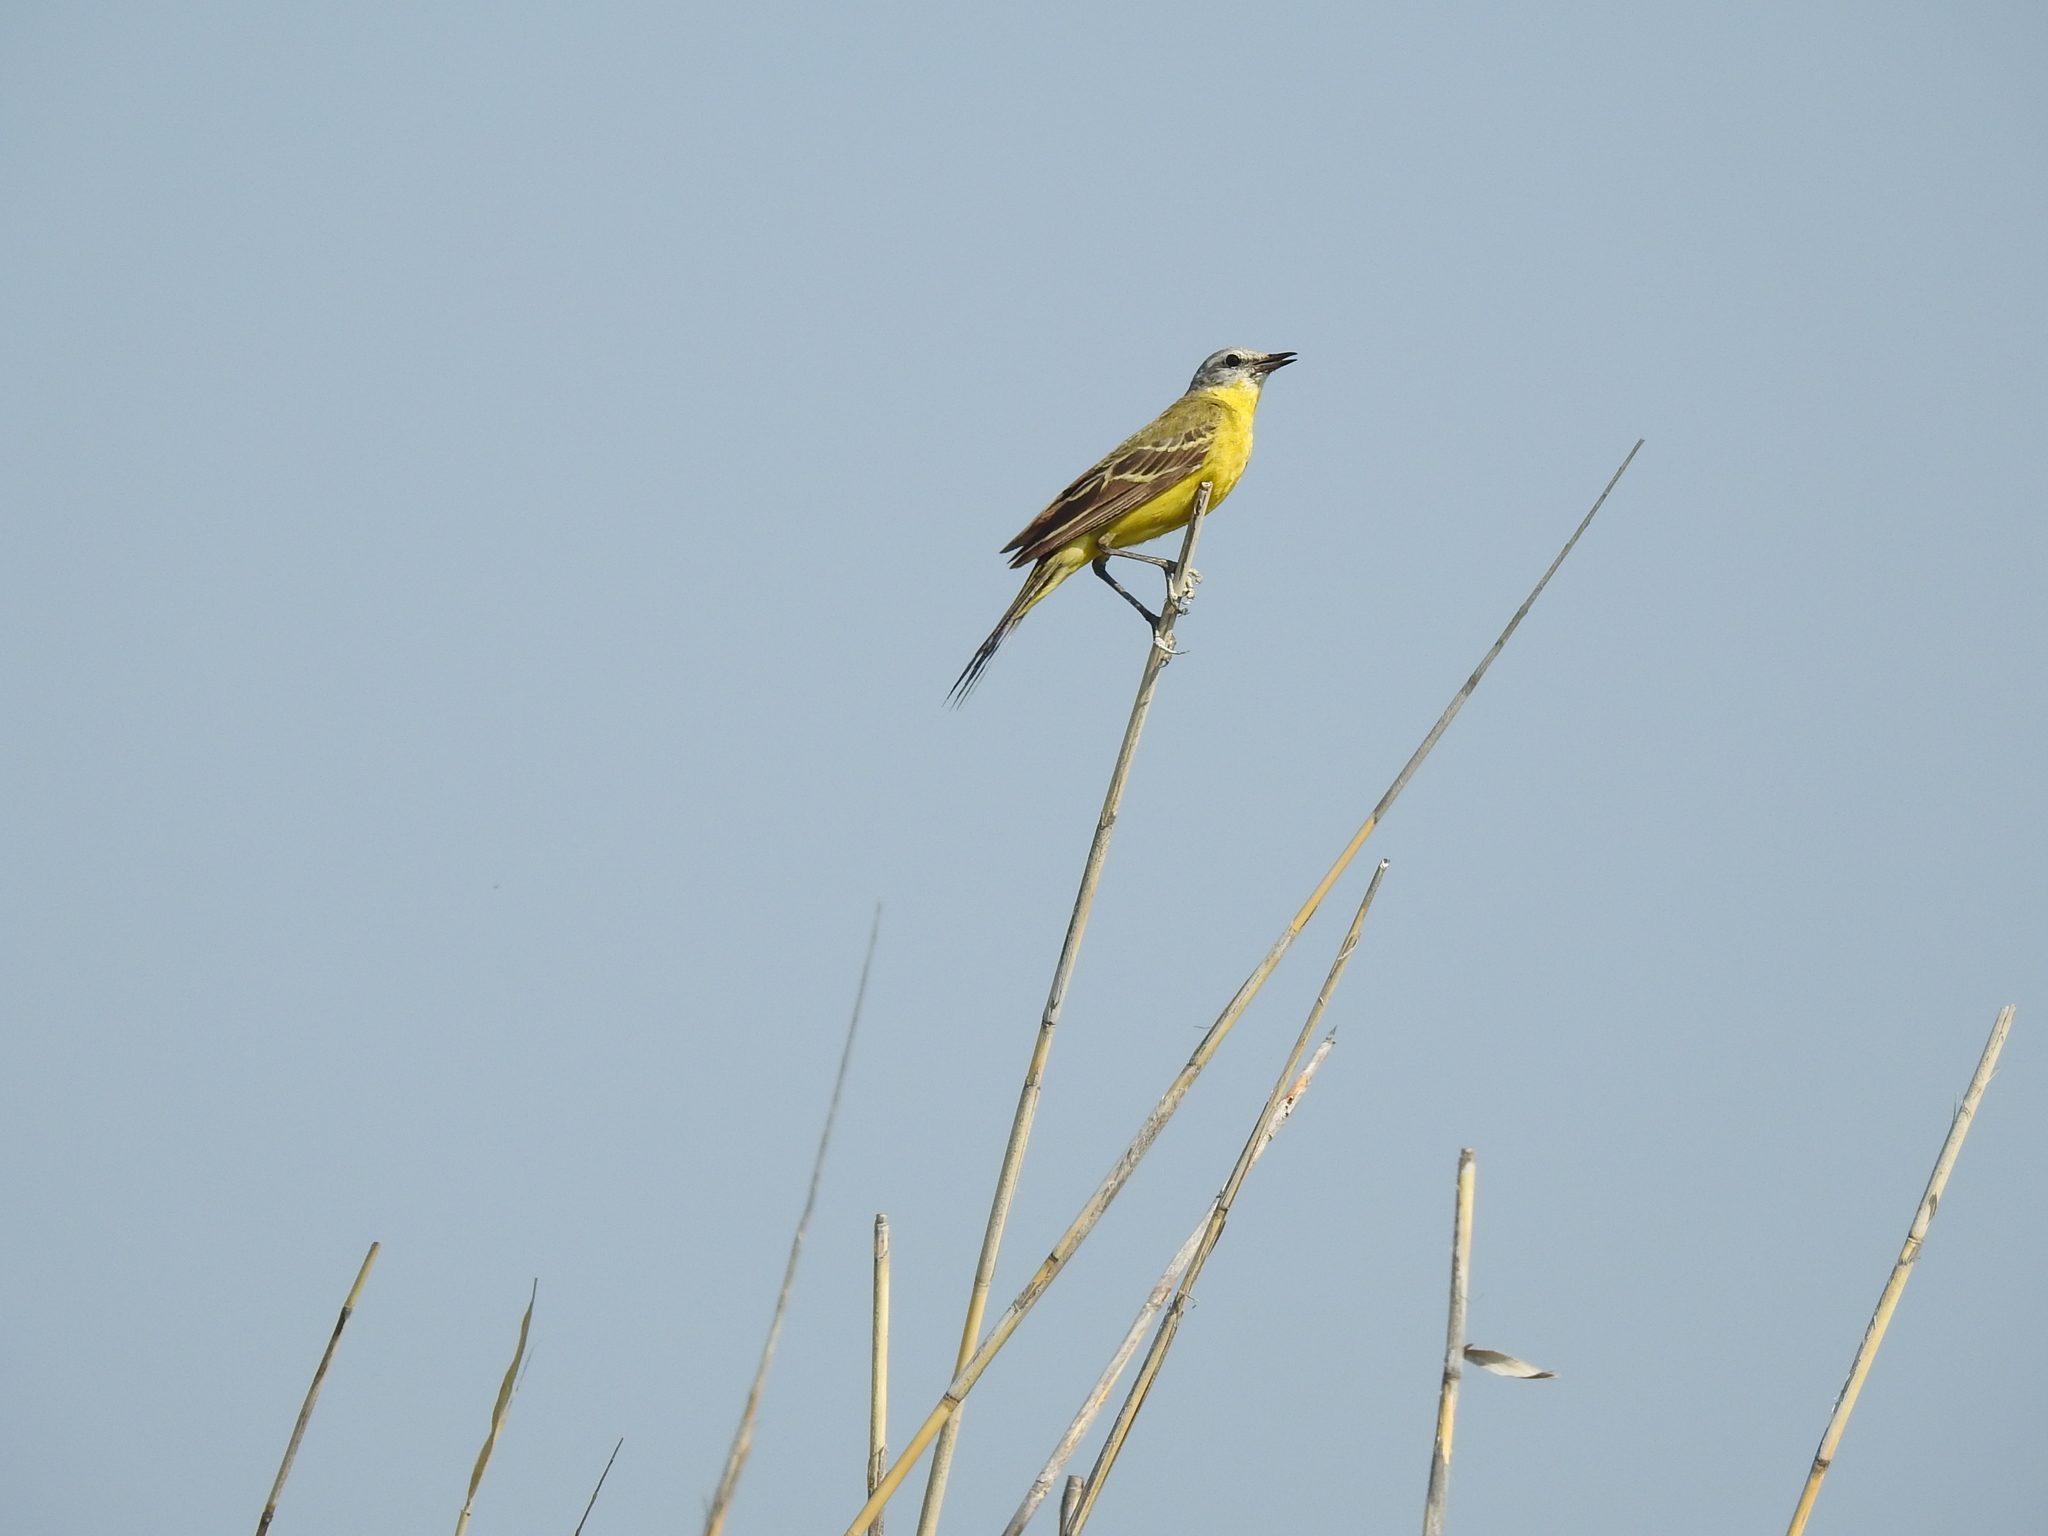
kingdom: Animalia
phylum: Chordata
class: Aves
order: Passeriformes
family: Motacillidae
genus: Motacilla
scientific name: Motacilla flava
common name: Western yellow wagtail
